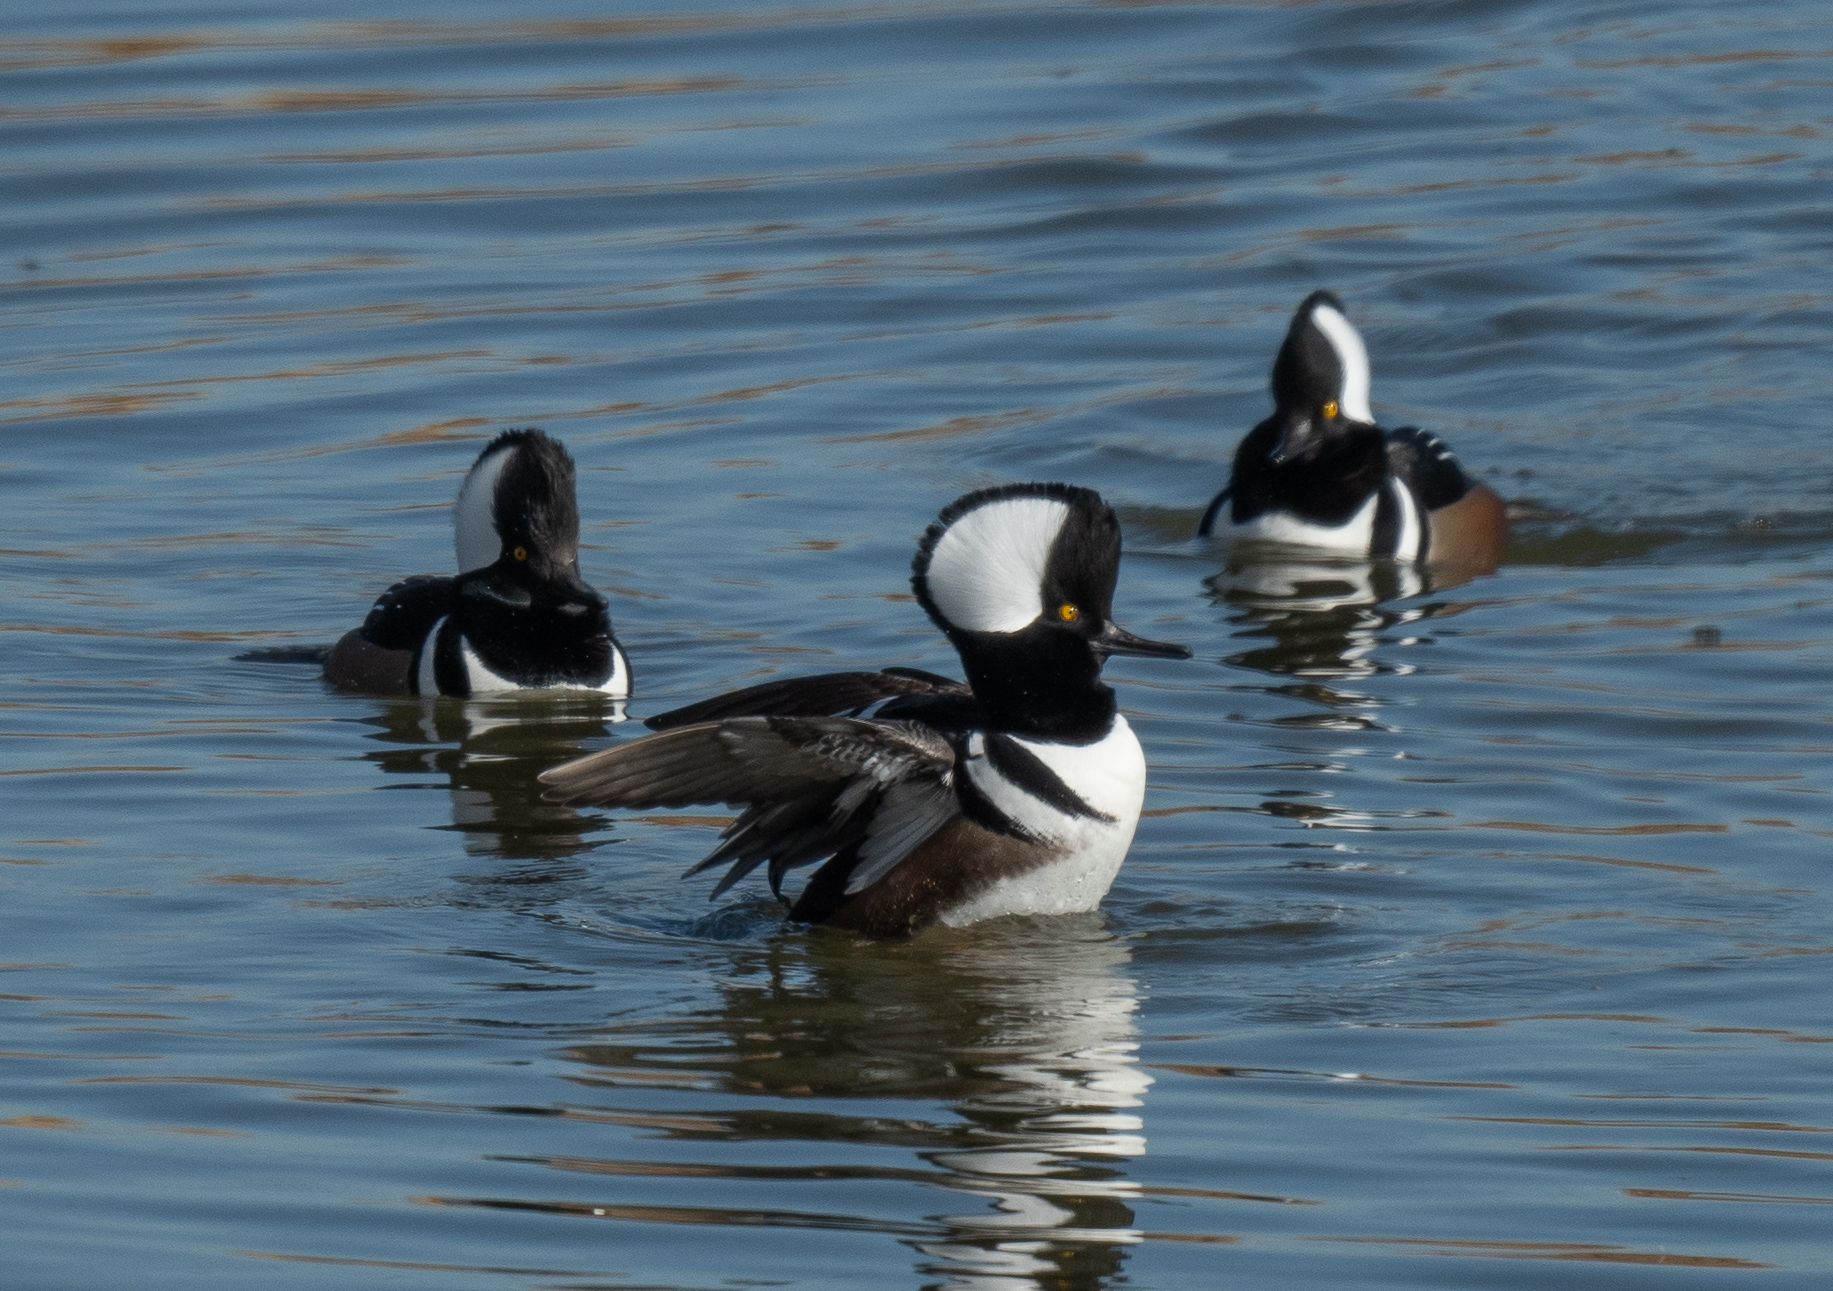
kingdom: Animalia
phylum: Chordata
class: Aves
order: Anseriformes
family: Anatidae
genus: Lophodytes
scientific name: Lophodytes cucullatus
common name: Hooded merganser
